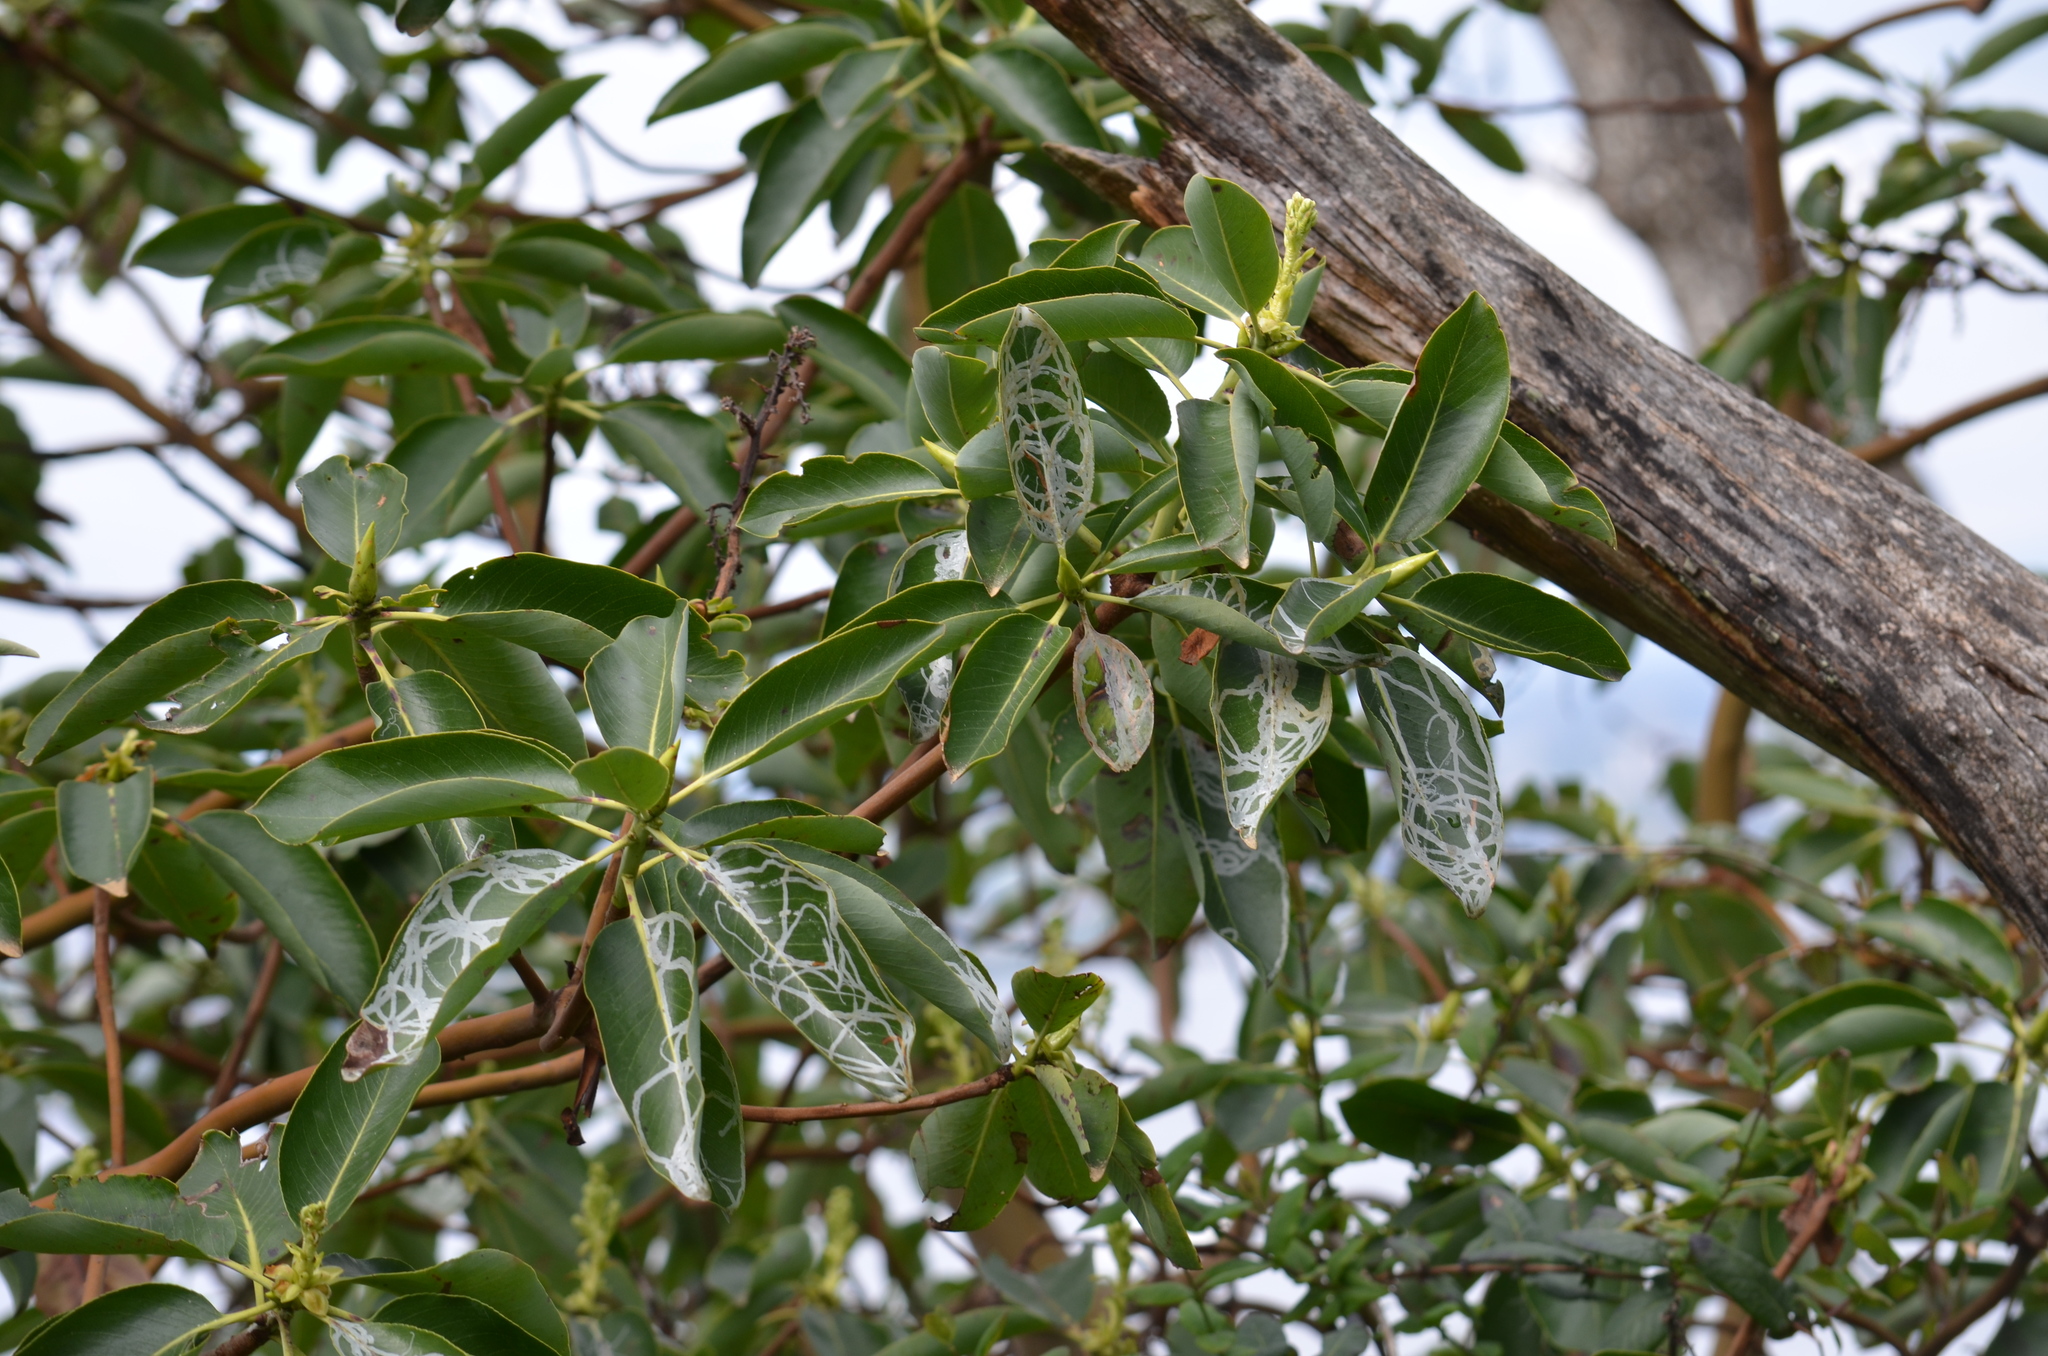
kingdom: Animalia
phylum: Arthropoda
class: Insecta
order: Lepidoptera
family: Gracillariidae
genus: Marmara
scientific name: Marmara arbutiella
